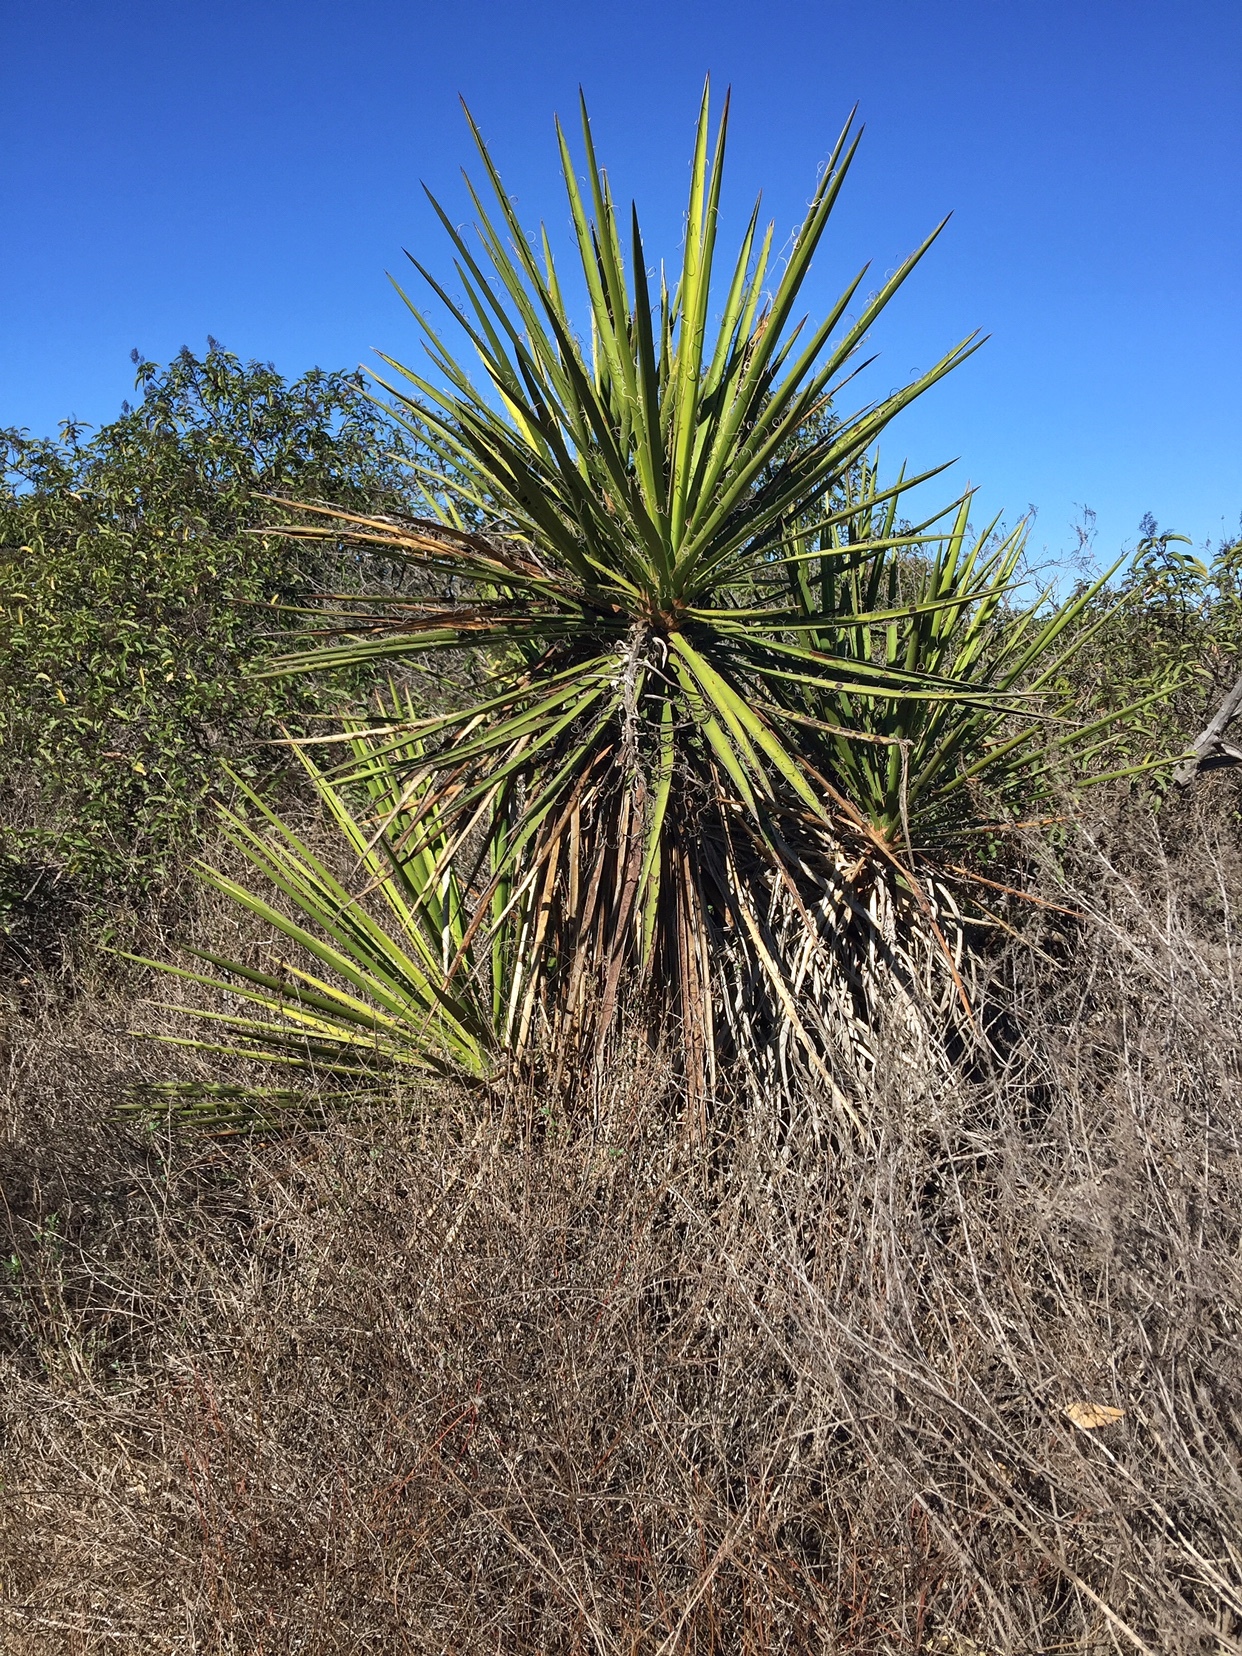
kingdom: Plantae
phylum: Tracheophyta
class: Liliopsida
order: Asparagales
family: Asparagaceae
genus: Yucca
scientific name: Yucca schidigera
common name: Mojave yucca
